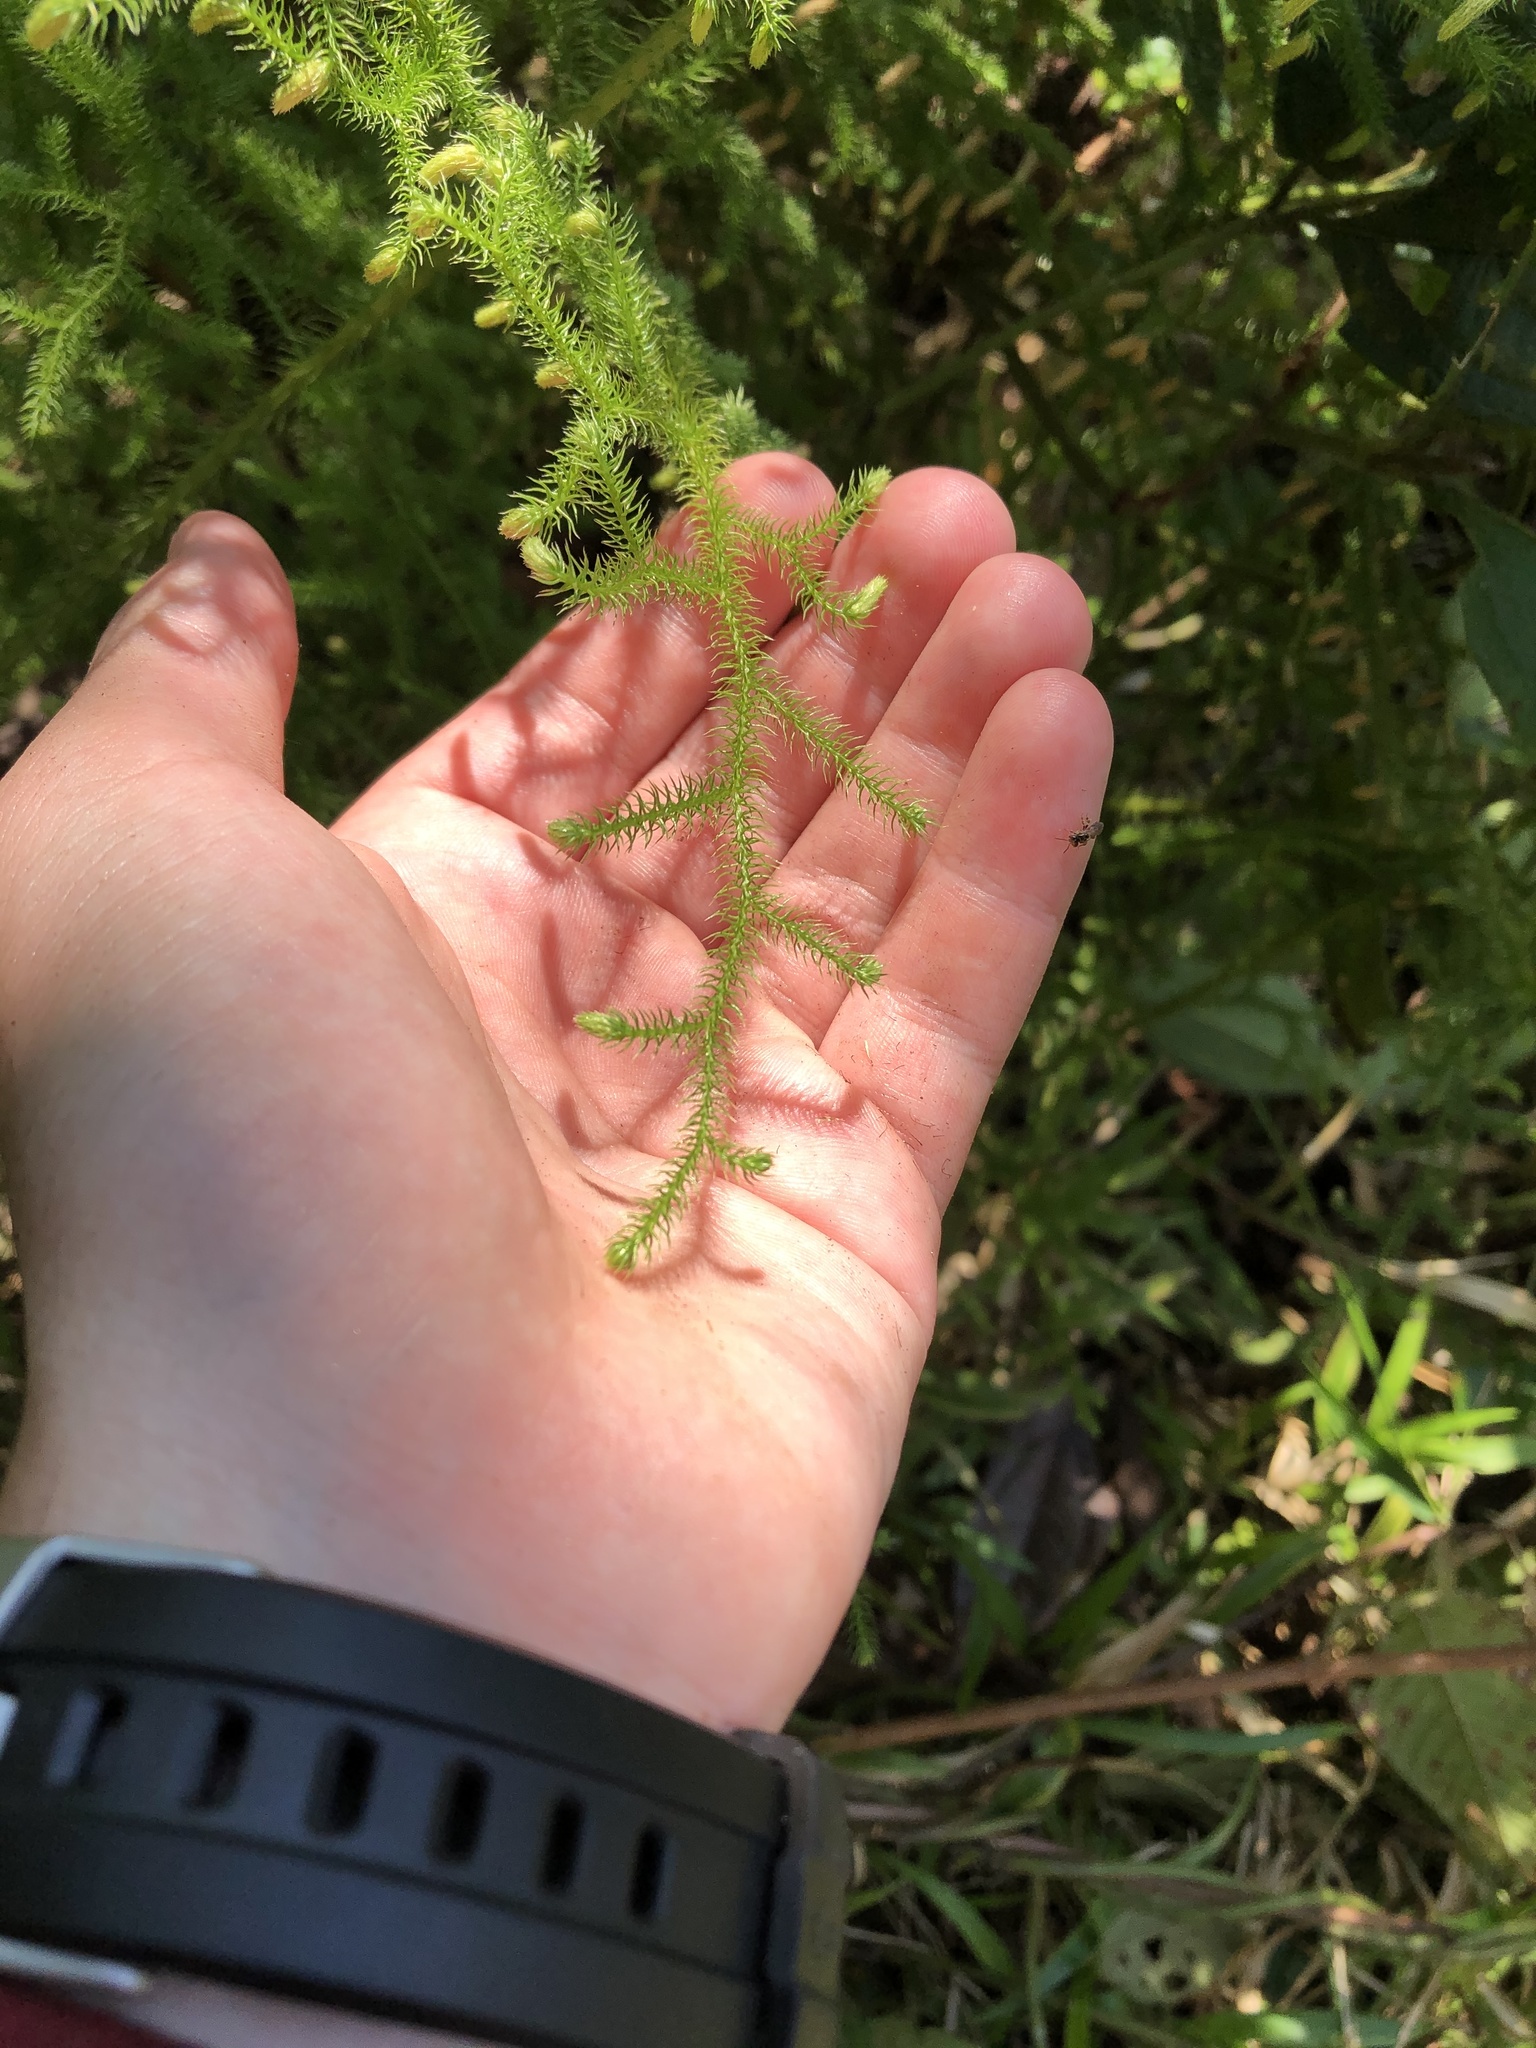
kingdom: Plantae
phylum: Tracheophyta
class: Lycopodiopsida
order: Lycopodiales
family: Lycopodiaceae
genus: Palhinhaea
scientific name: Palhinhaea cernua
